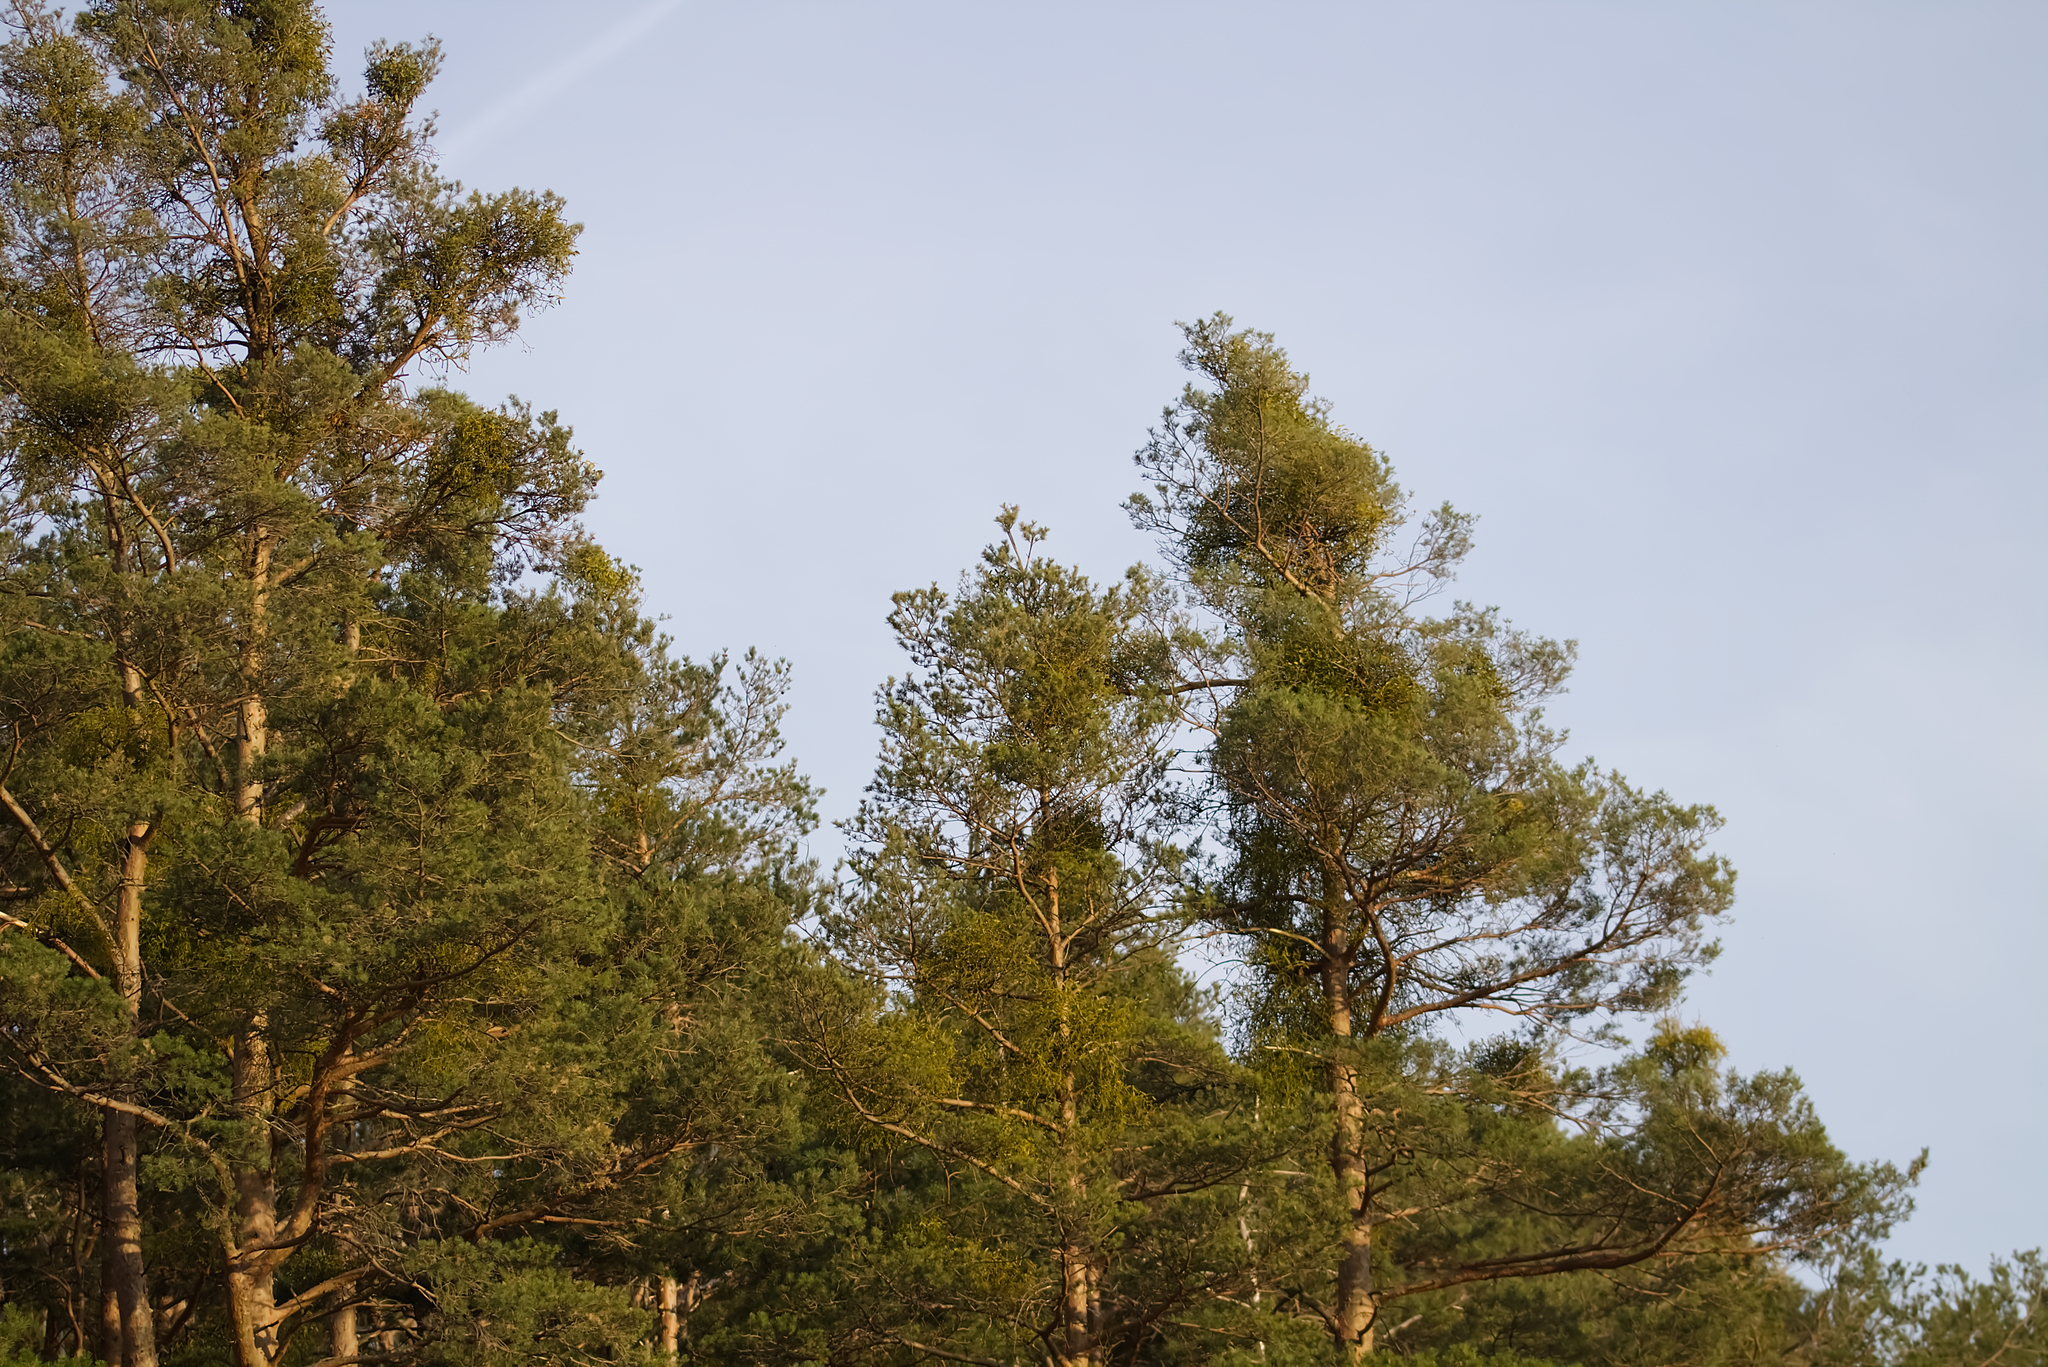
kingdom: Plantae
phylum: Tracheophyta
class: Magnoliopsida
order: Santalales
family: Viscaceae
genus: Viscum
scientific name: Viscum laxum
